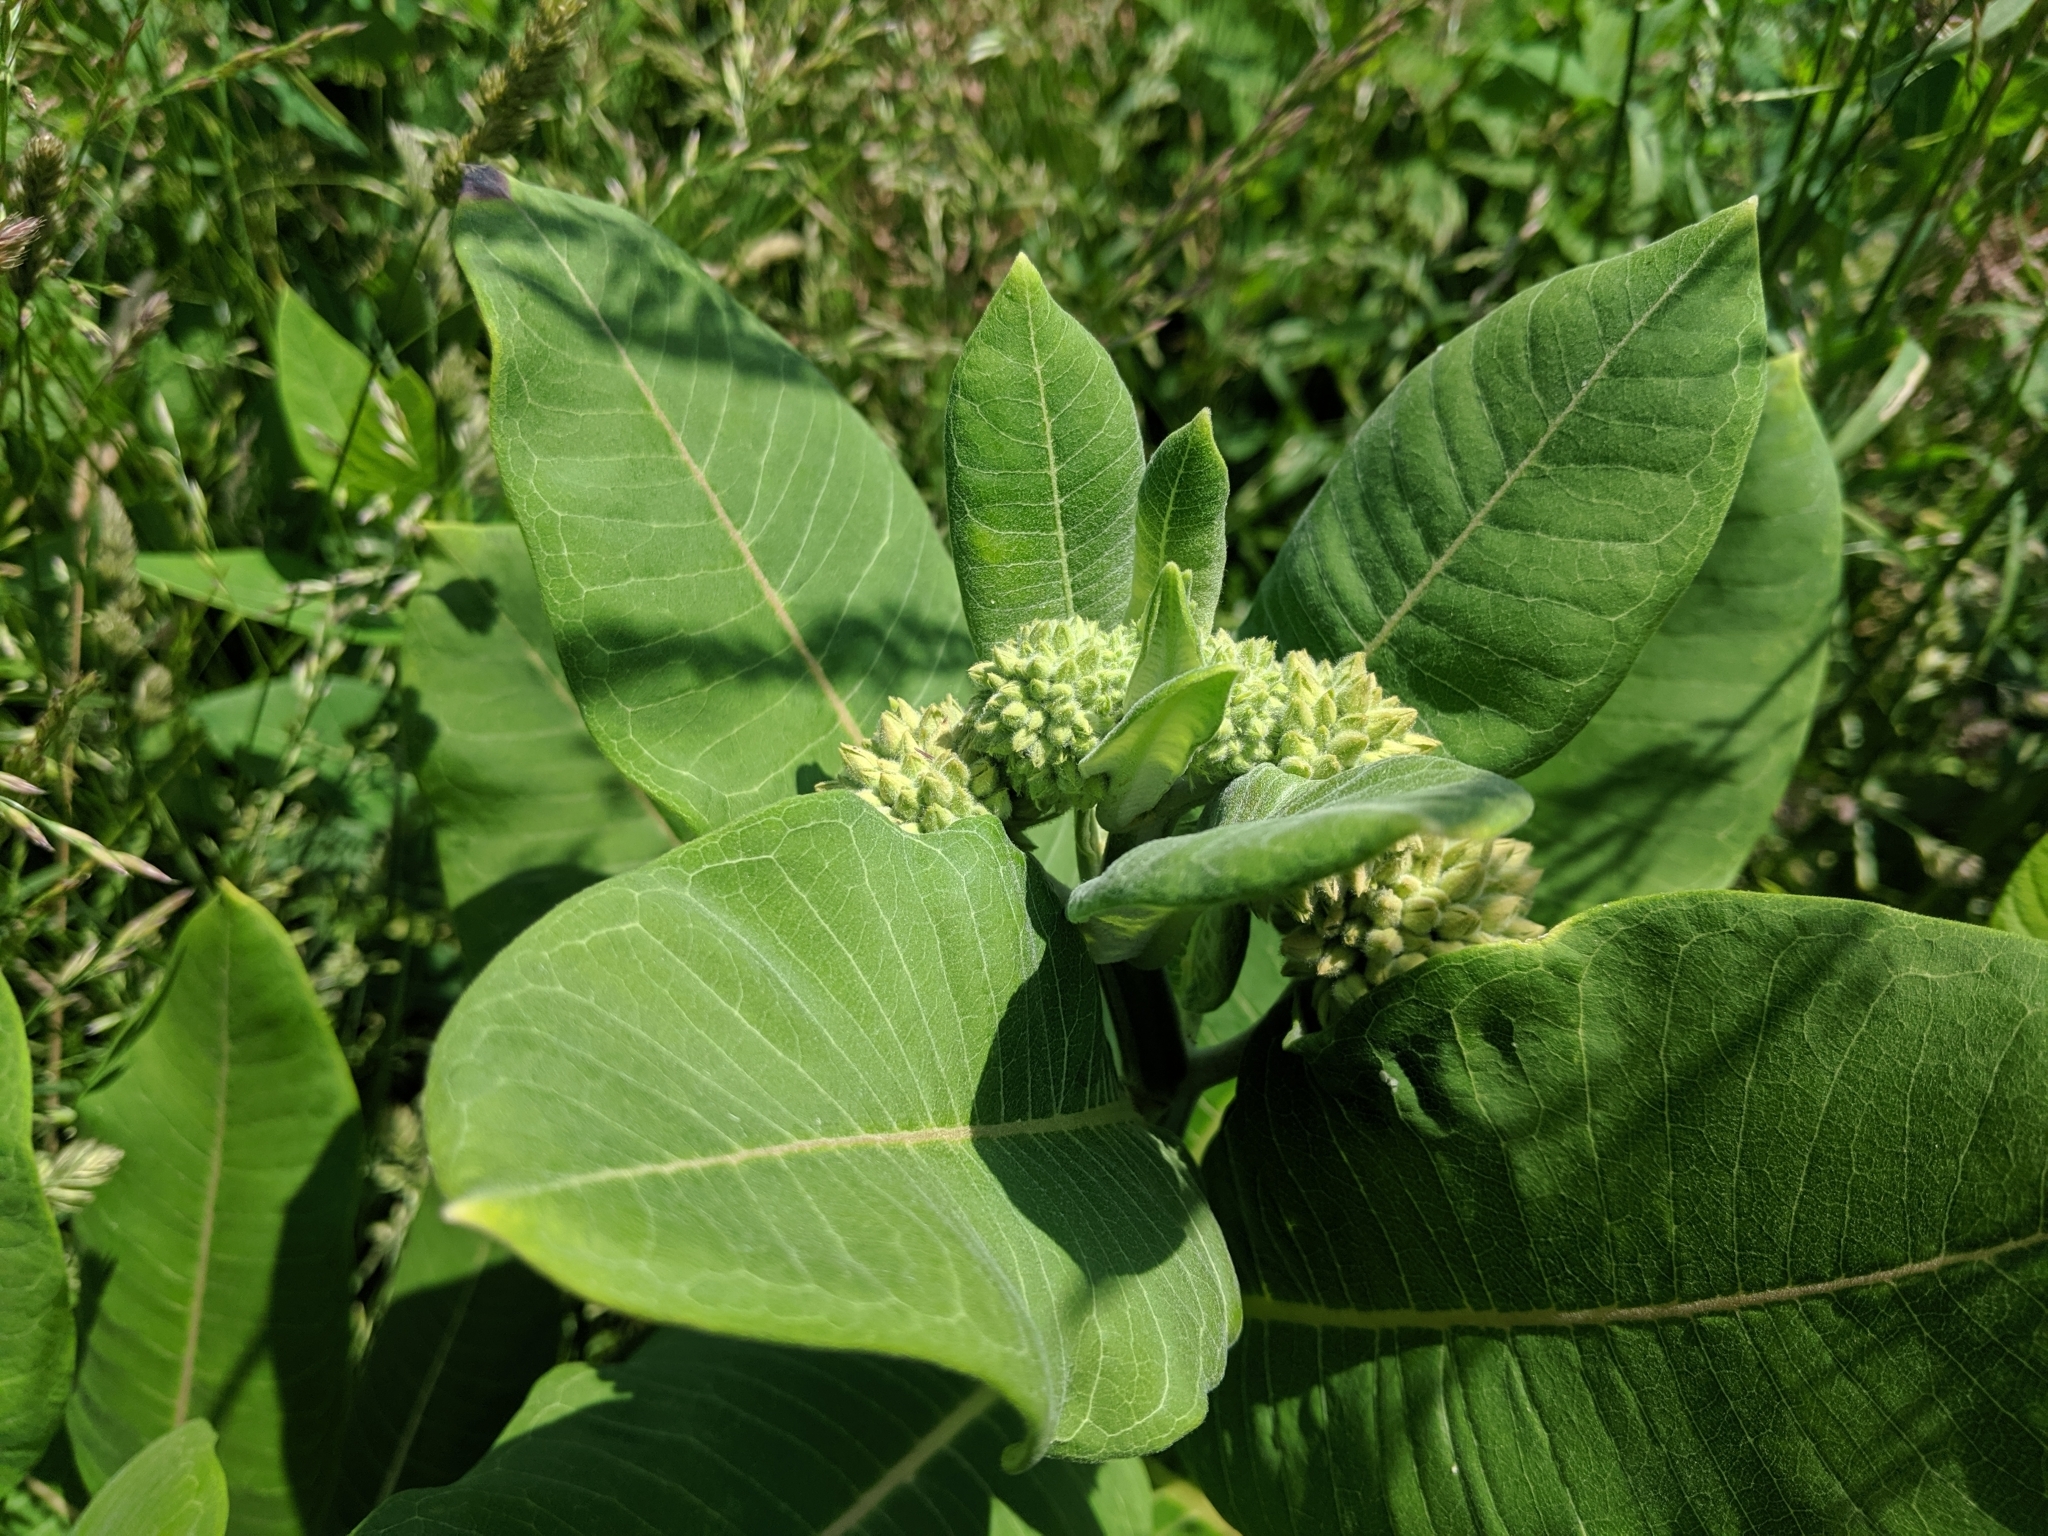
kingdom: Plantae
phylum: Tracheophyta
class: Magnoliopsida
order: Gentianales
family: Apocynaceae
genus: Asclepias
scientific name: Asclepias syriaca
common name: Common milkweed
